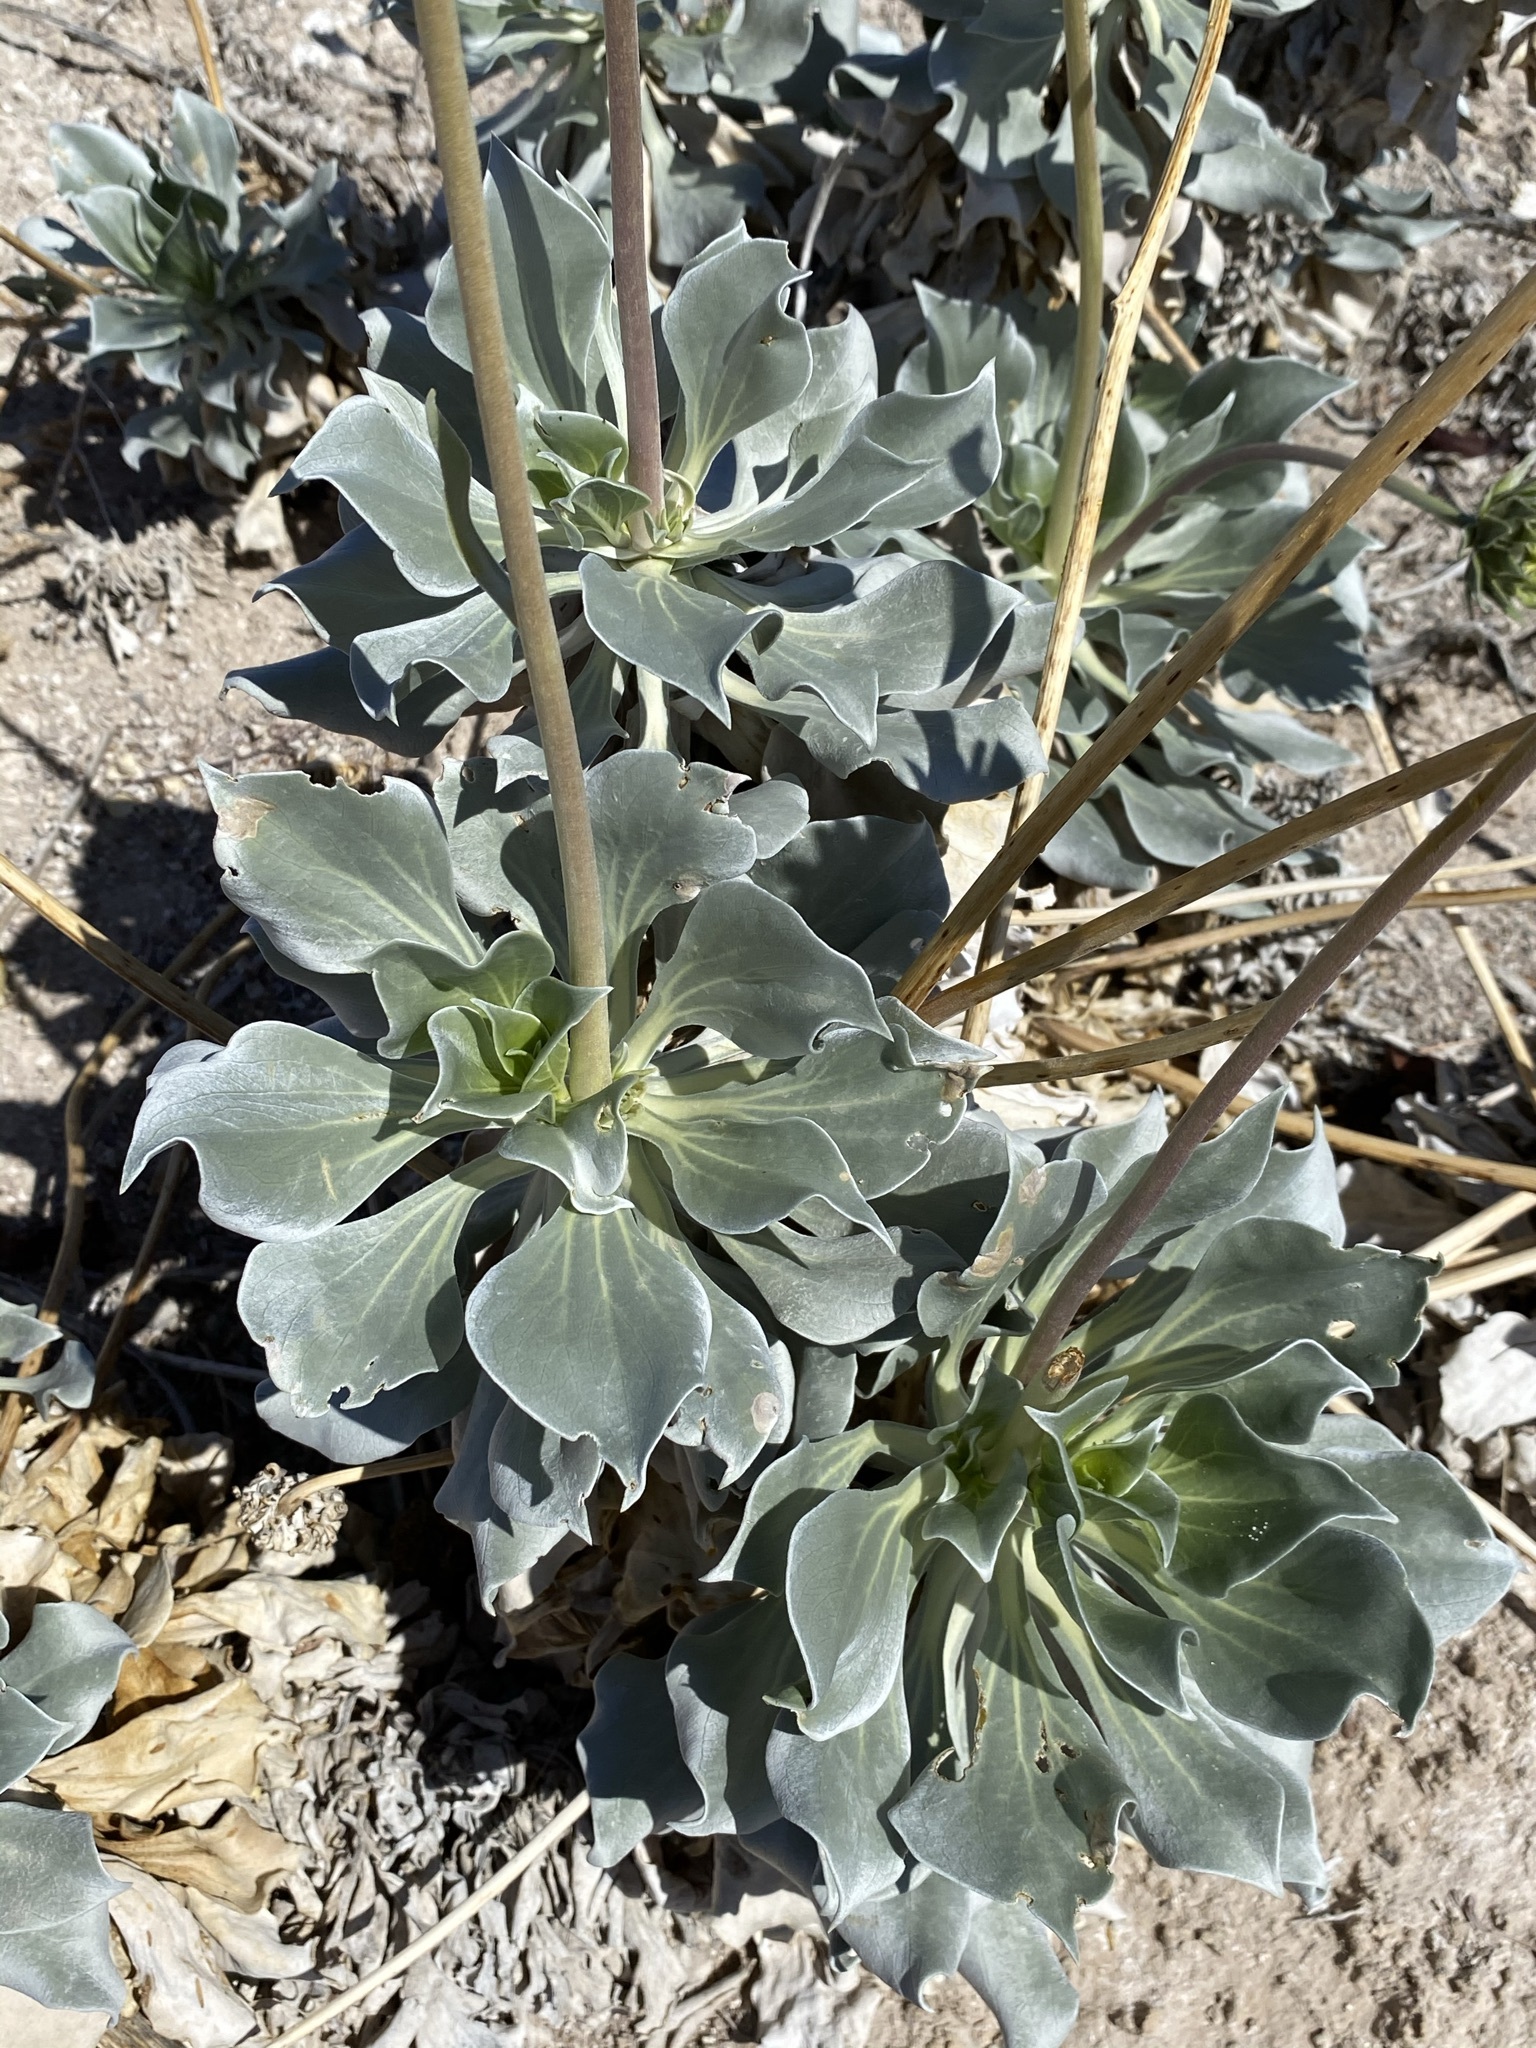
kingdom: Plantae
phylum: Tracheophyta
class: Magnoliopsida
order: Asterales
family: Asteraceae
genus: Enceliopsis
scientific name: Enceliopsis argophylla
